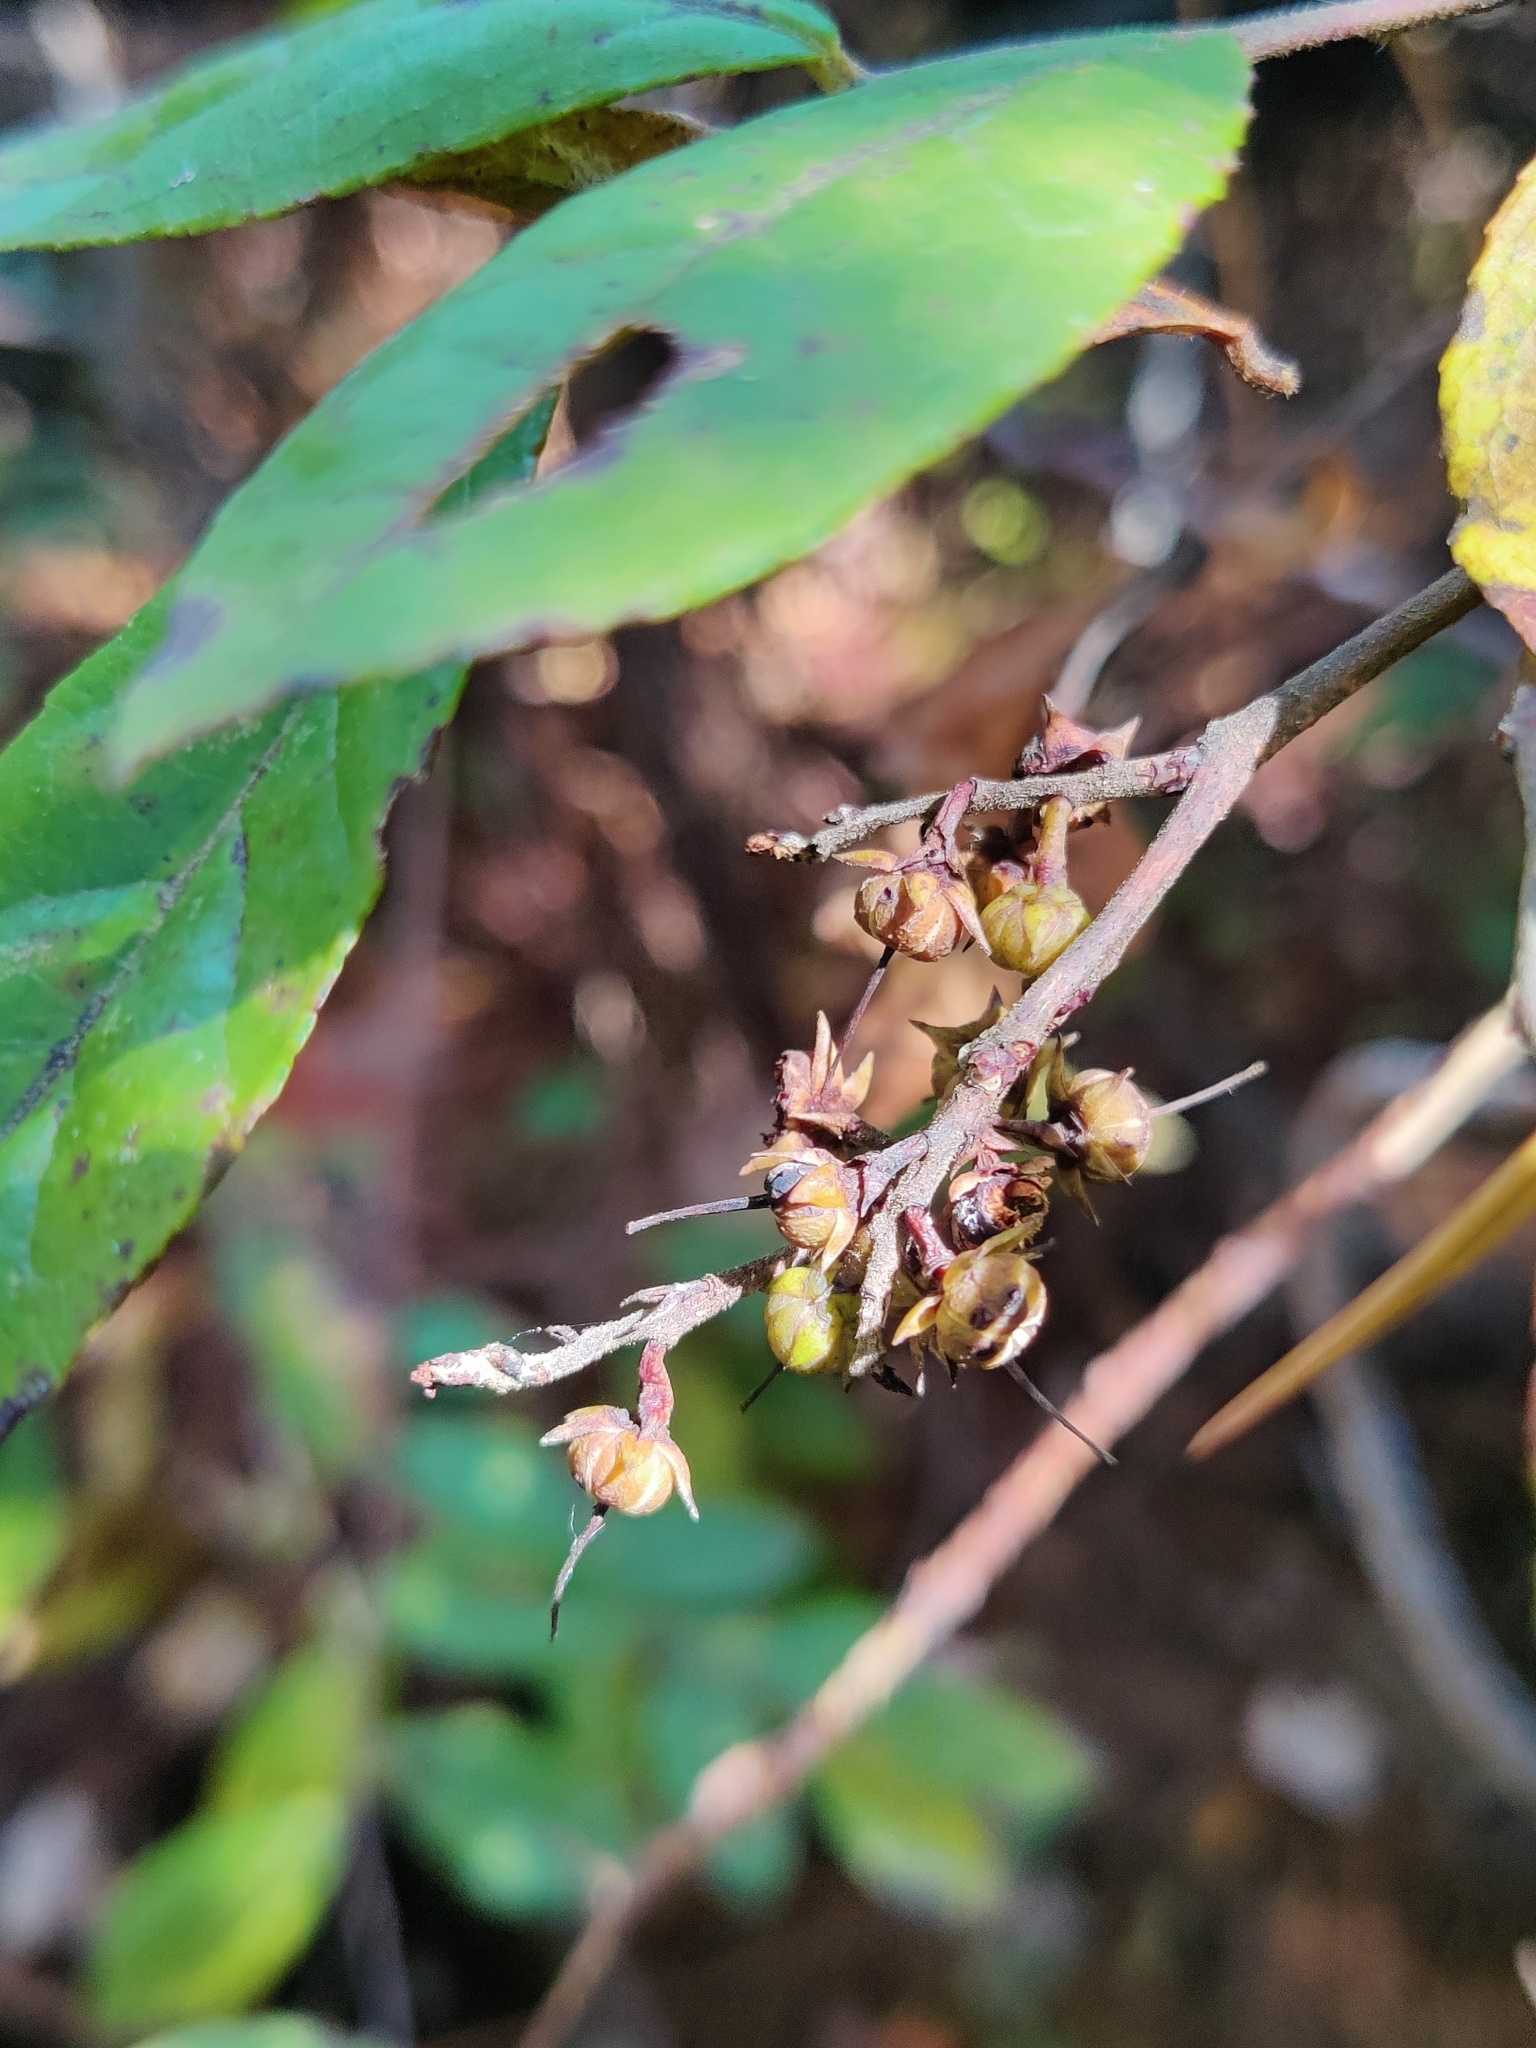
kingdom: Plantae
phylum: Tracheophyta
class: Magnoliopsida
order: Ericales
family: Ericaceae
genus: Eubotrys
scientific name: Eubotrys racemosa
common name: Fetterbush
